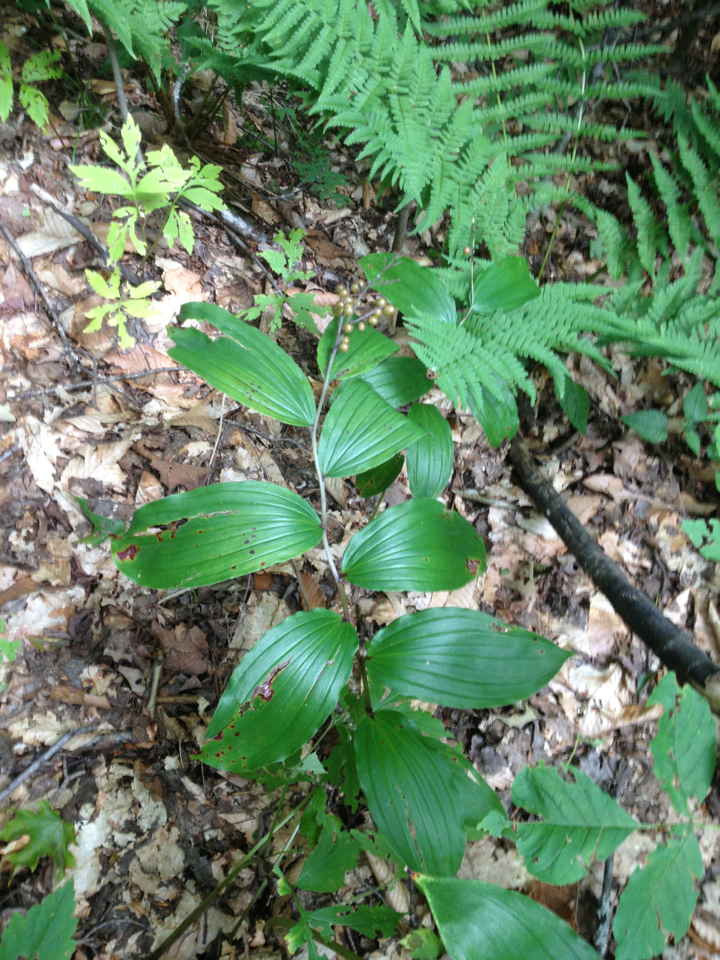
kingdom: Plantae
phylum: Tracheophyta
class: Liliopsida
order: Asparagales
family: Asparagaceae
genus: Maianthemum
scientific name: Maianthemum racemosum
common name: False spikenard
